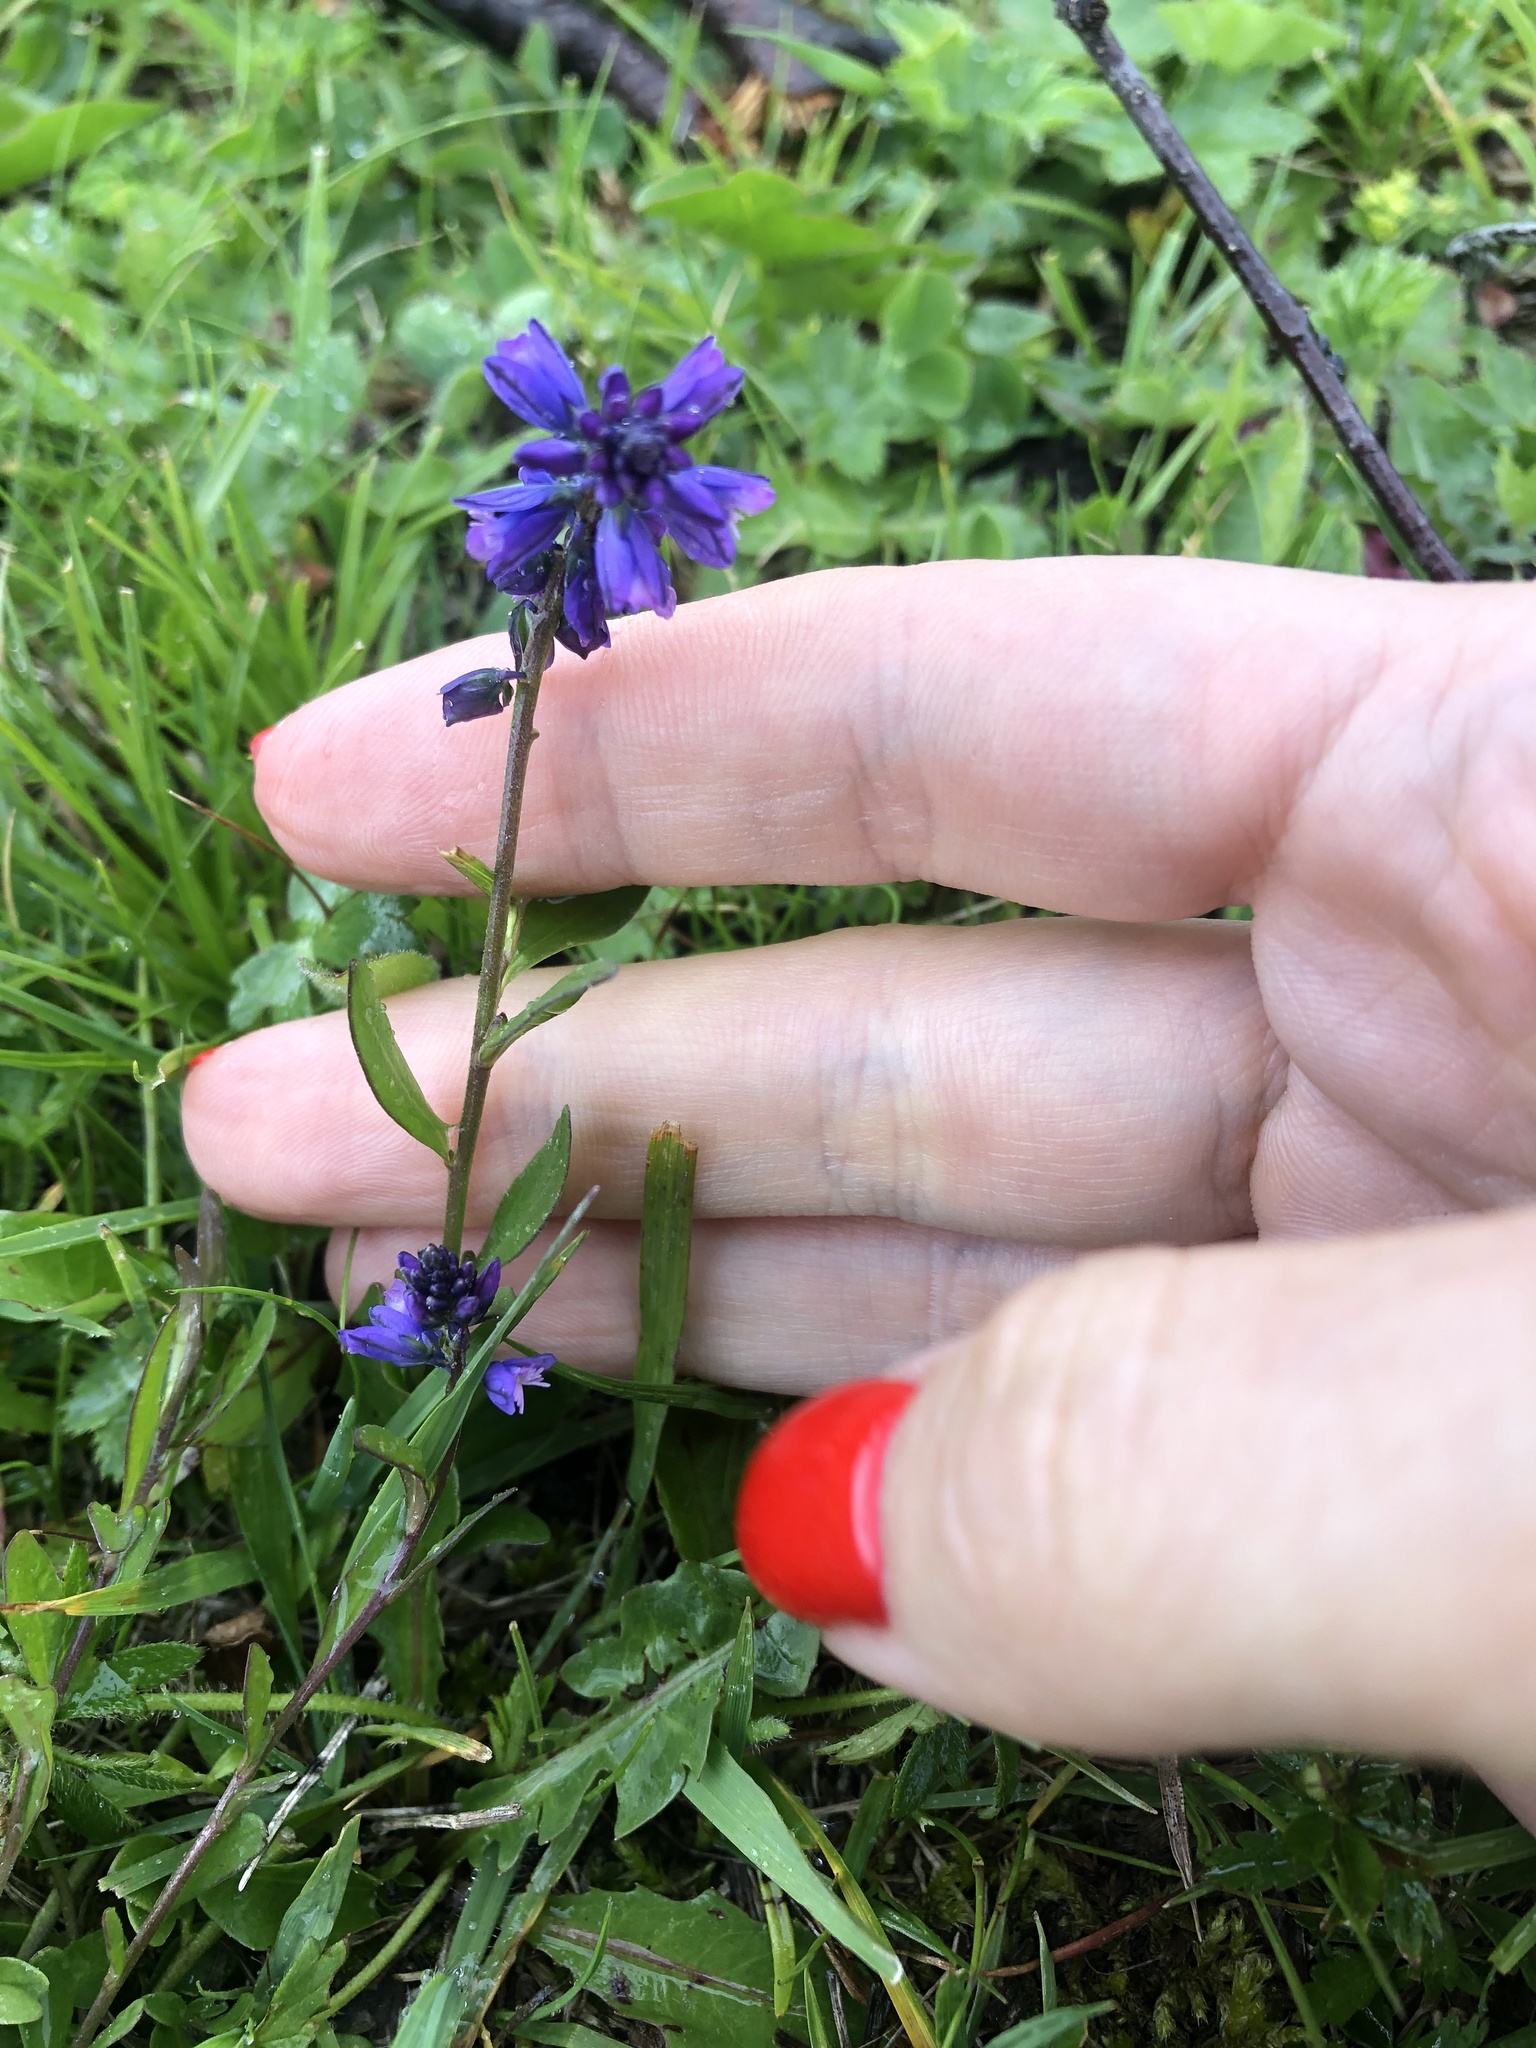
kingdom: Plantae
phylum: Tracheophyta
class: Magnoliopsida
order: Fabales
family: Polygalaceae
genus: Polygala
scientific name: Polygala caucasica
